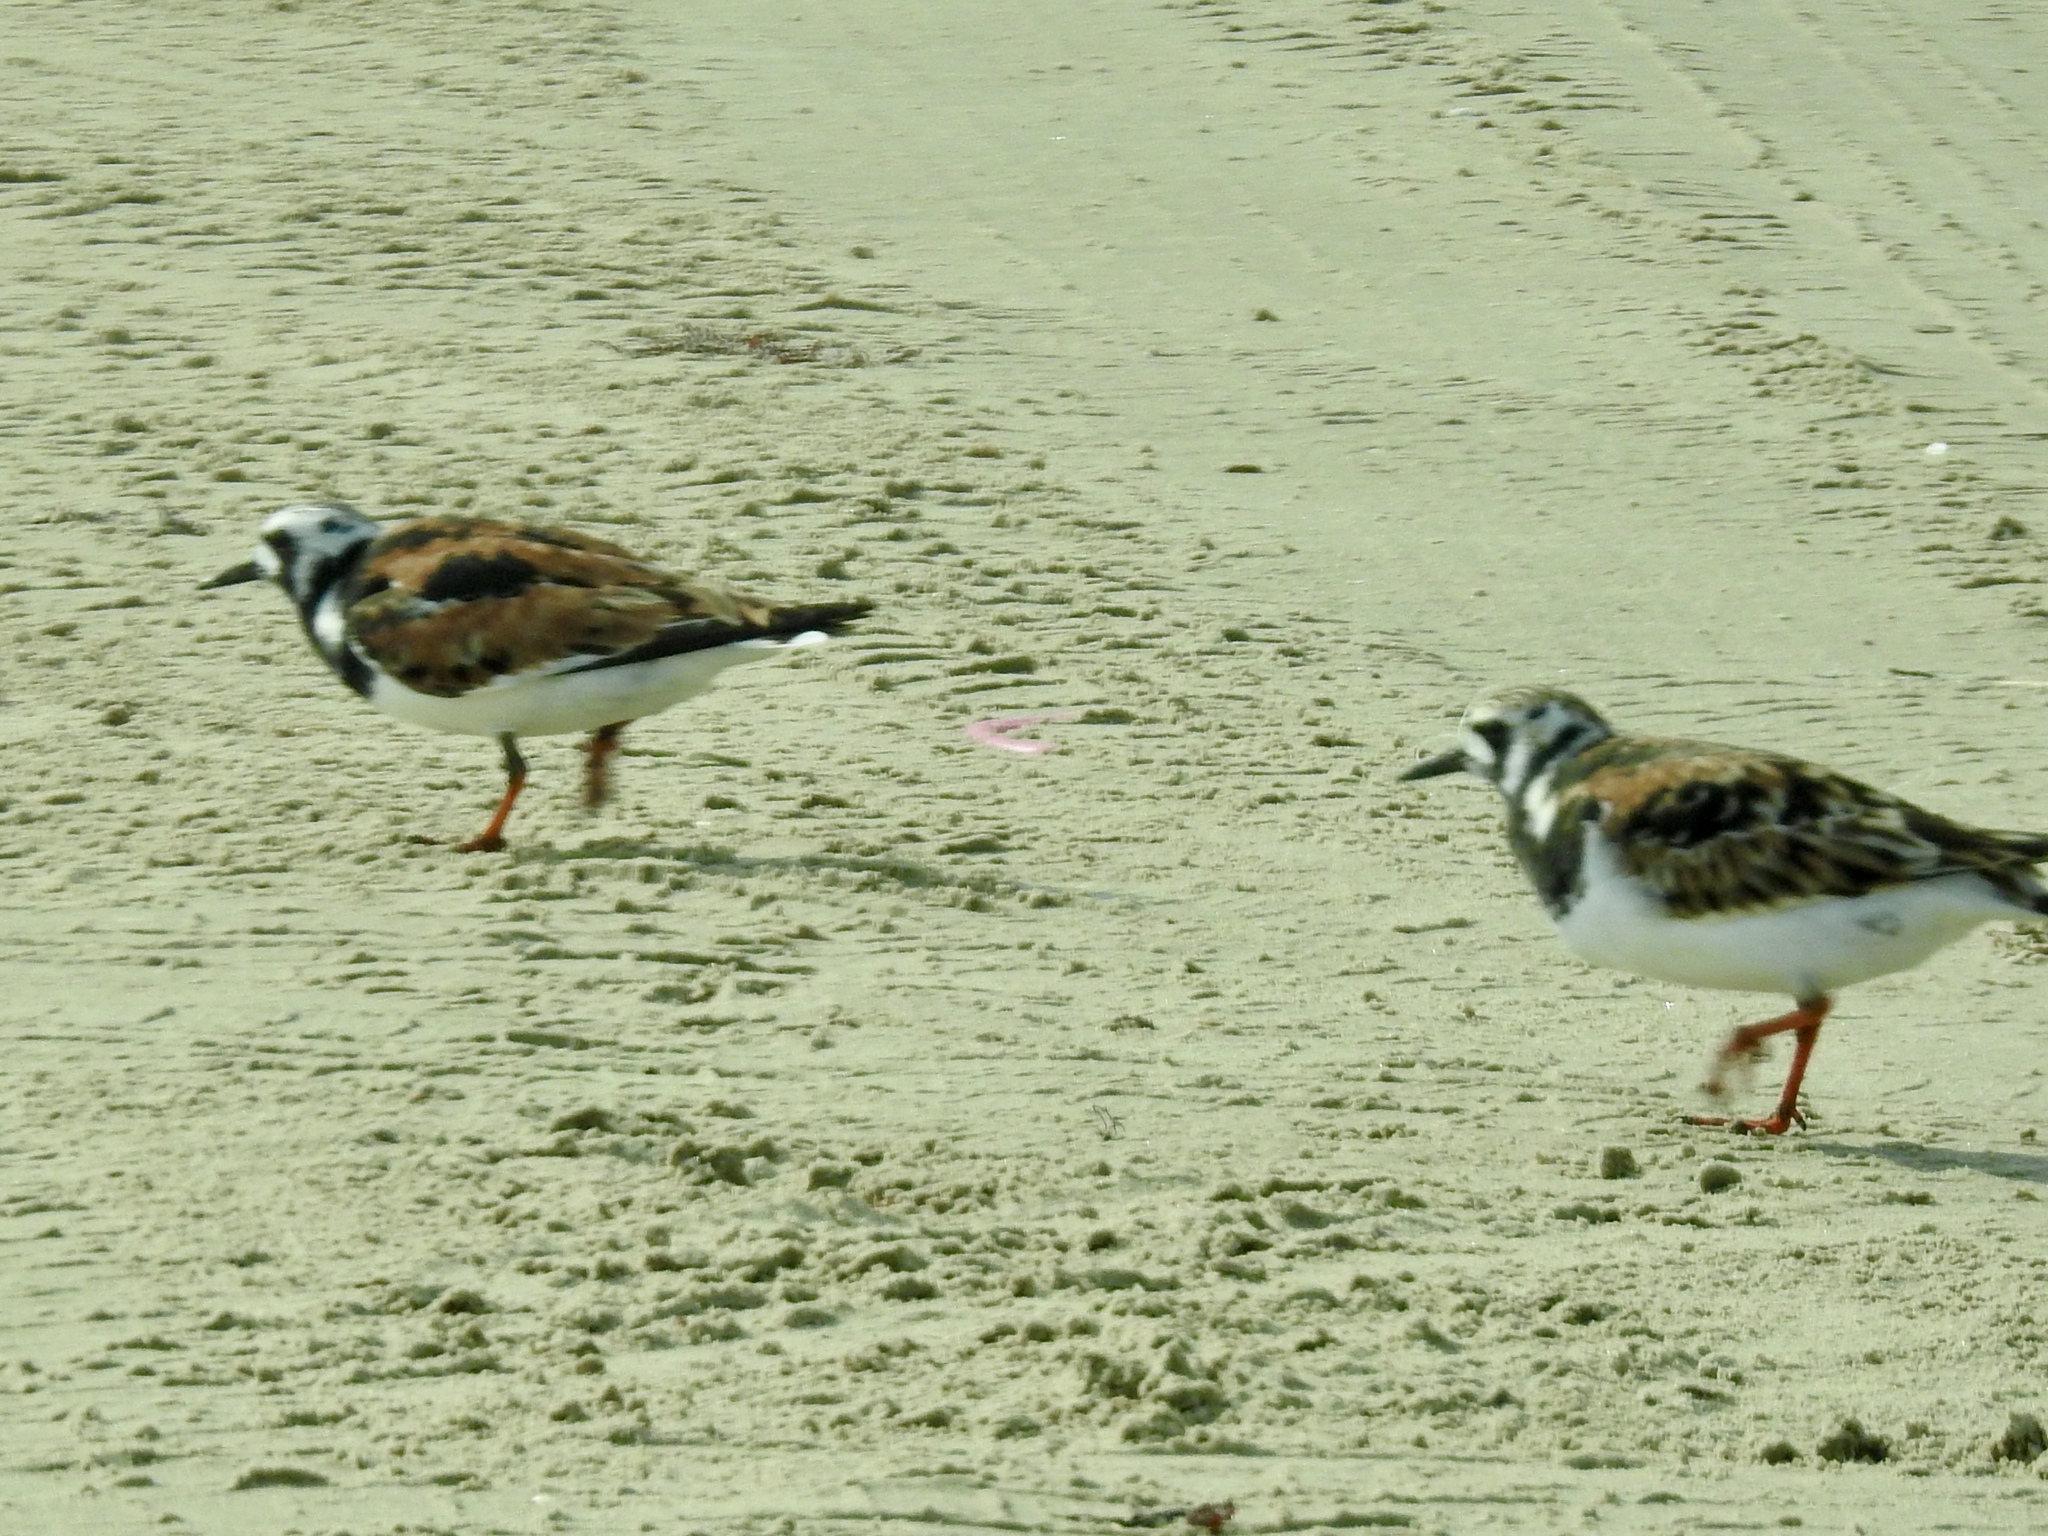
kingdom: Animalia
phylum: Chordata
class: Aves
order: Charadriiformes
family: Scolopacidae
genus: Arenaria
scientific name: Arenaria interpres
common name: Ruddy turnstone
